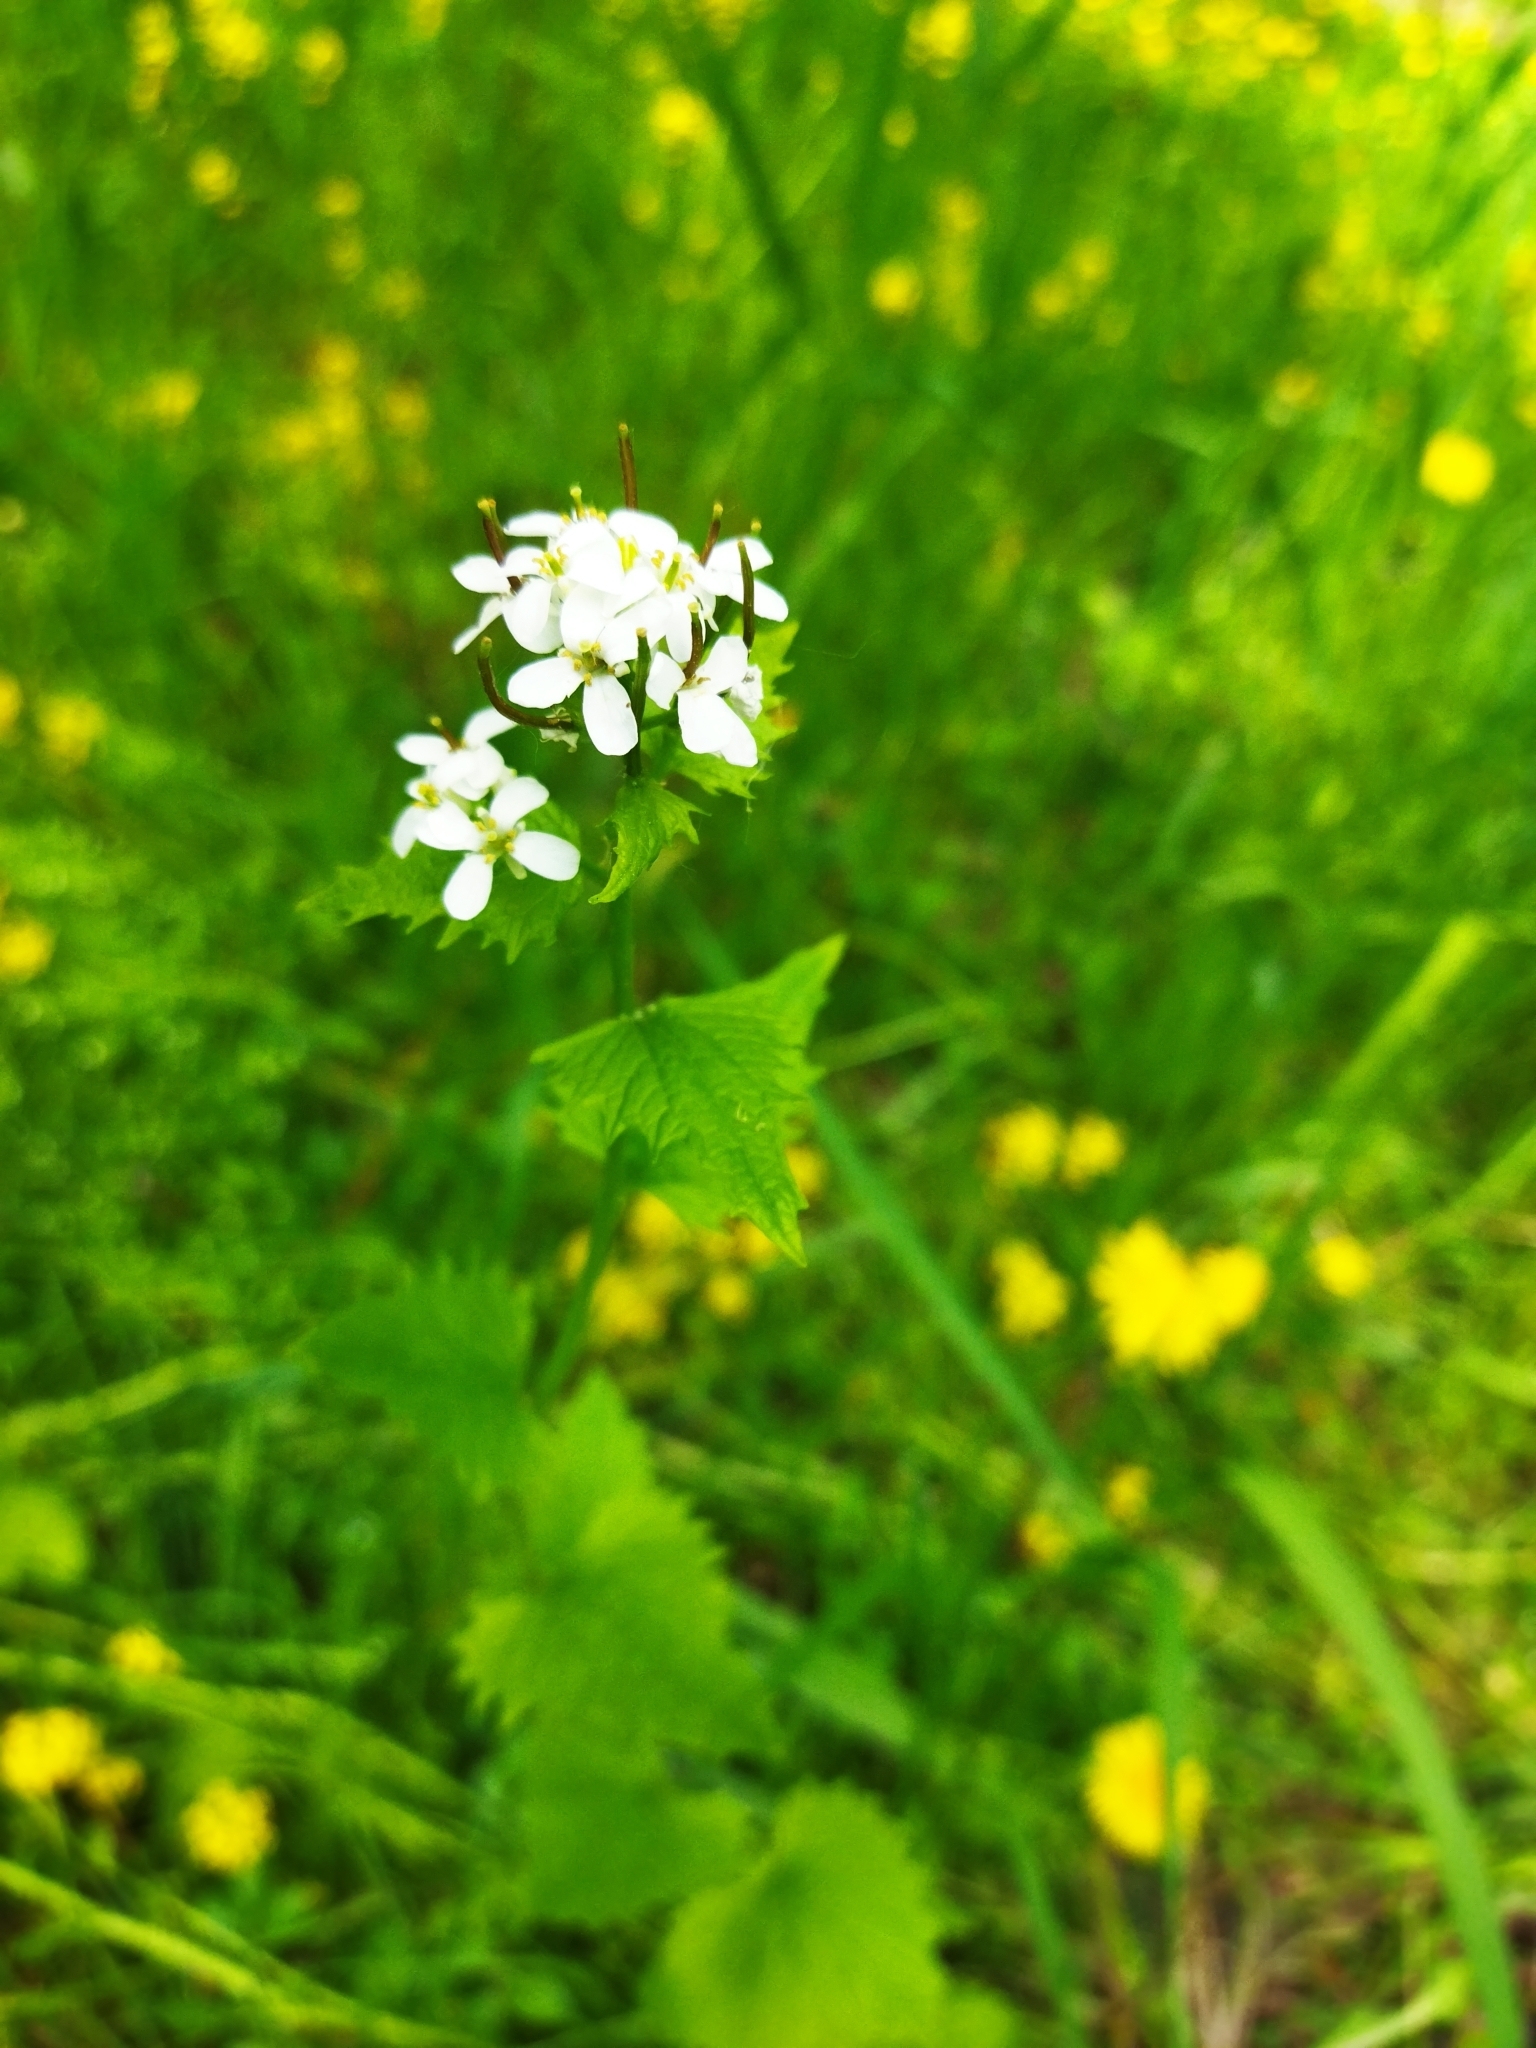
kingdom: Plantae
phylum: Tracheophyta
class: Magnoliopsida
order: Brassicales
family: Brassicaceae
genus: Alliaria
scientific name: Alliaria petiolata
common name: Garlic mustard
